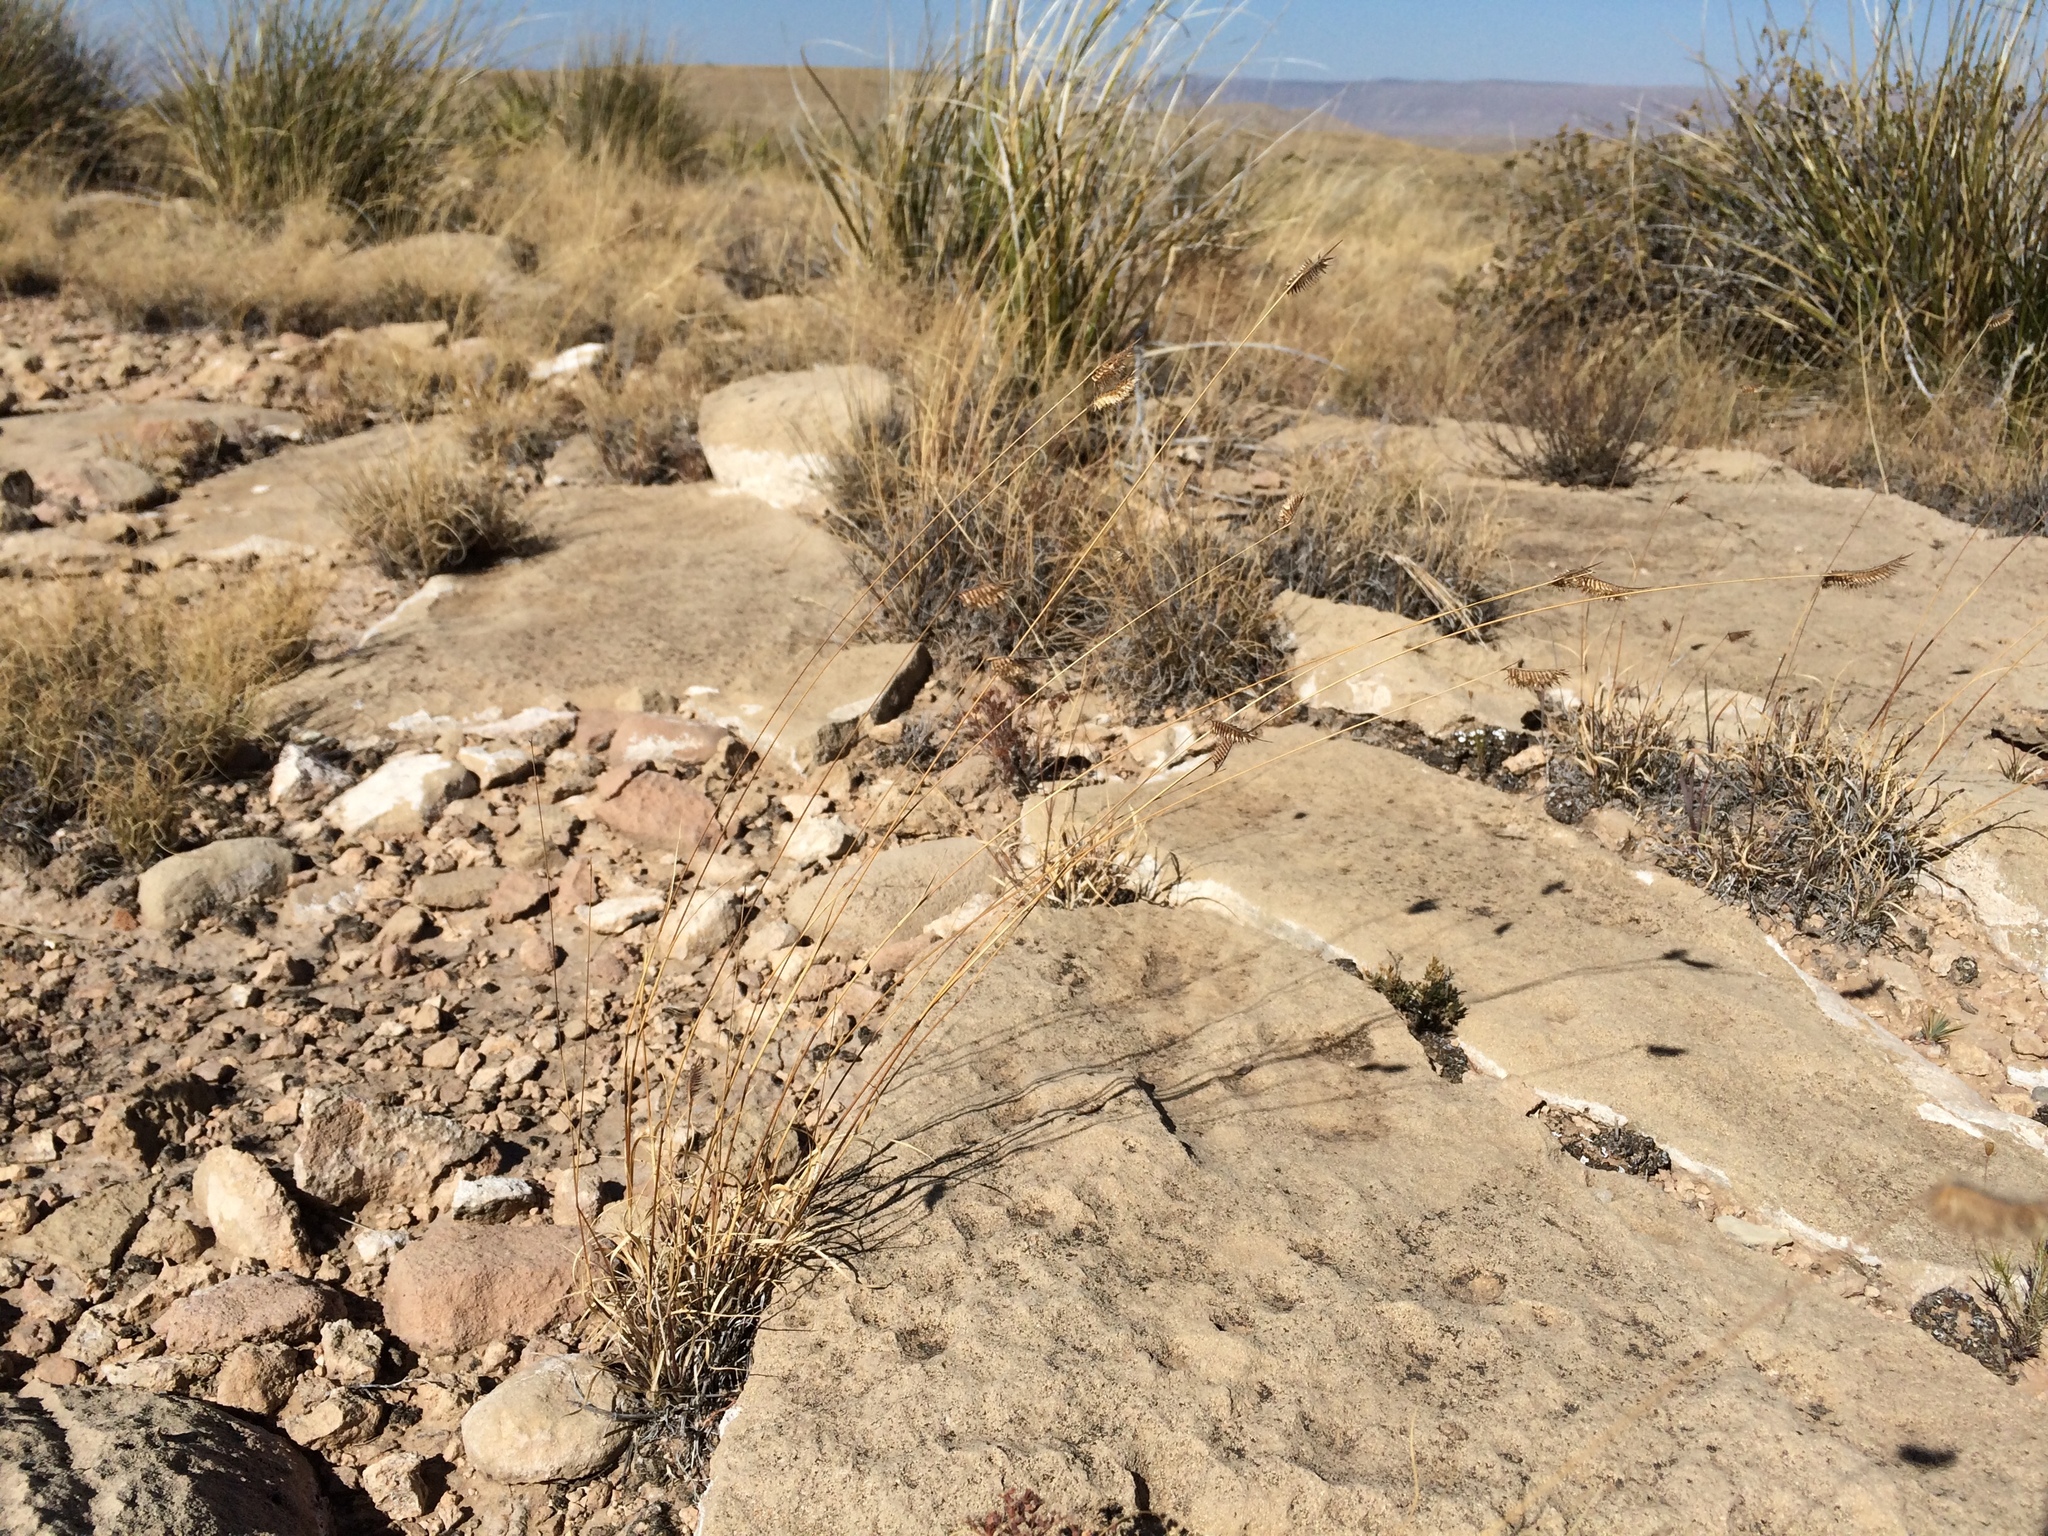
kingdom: Plantae
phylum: Tracheophyta
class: Liliopsida
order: Poales
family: Poaceae
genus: Bouteloua
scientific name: Bouteloua hirsuta
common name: Hairy grama
